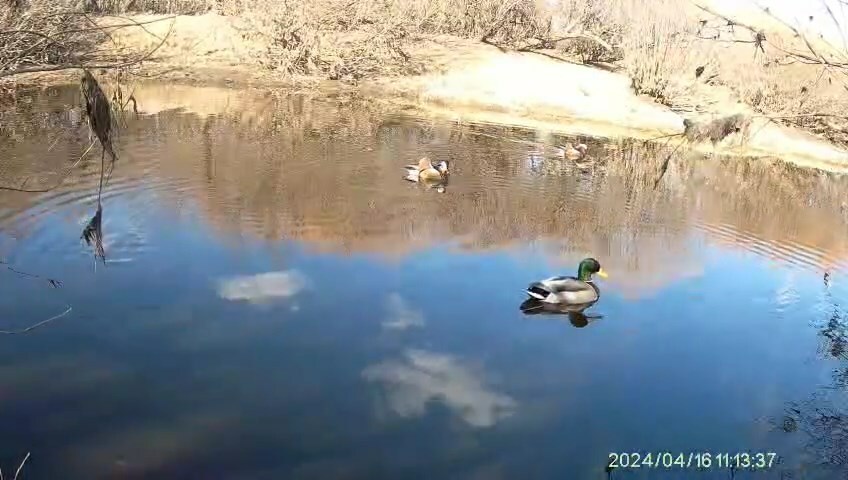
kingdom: Animalia
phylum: Chordata
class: Aves
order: Anseriformes
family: Anatidae
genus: Aix
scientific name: Aix galericulata
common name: Mandarin duck
